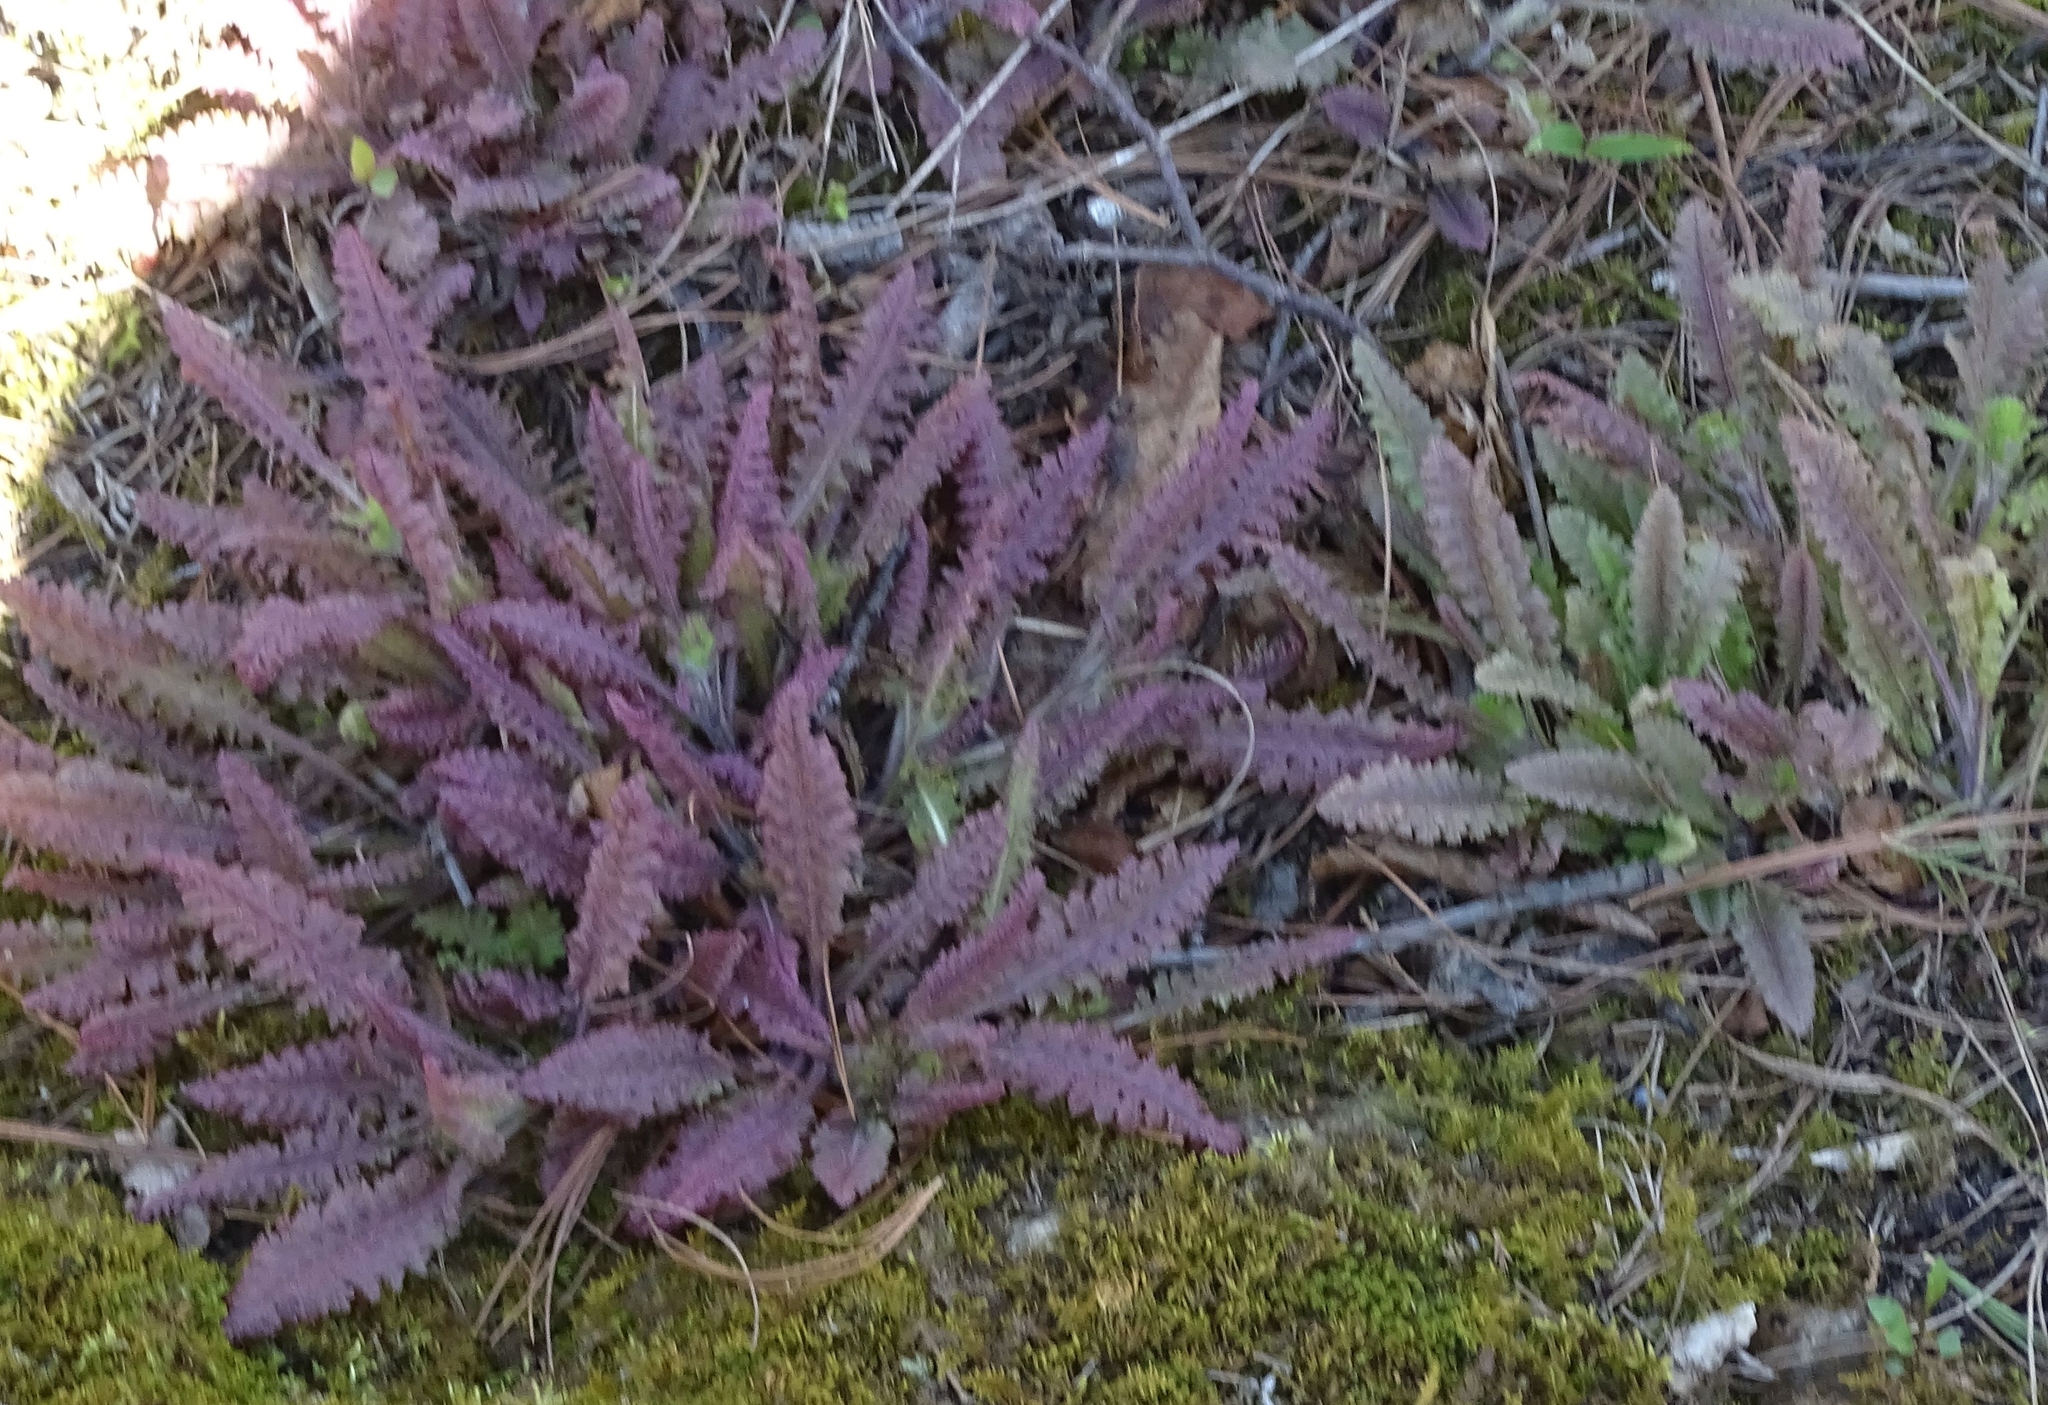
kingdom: Plantae
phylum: Tracheophyta
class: Magnoliopsida
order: Lamiales
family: Orobanchaceae
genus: Pedicularis
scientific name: Pedicularis canadensis
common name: Early lousewort
